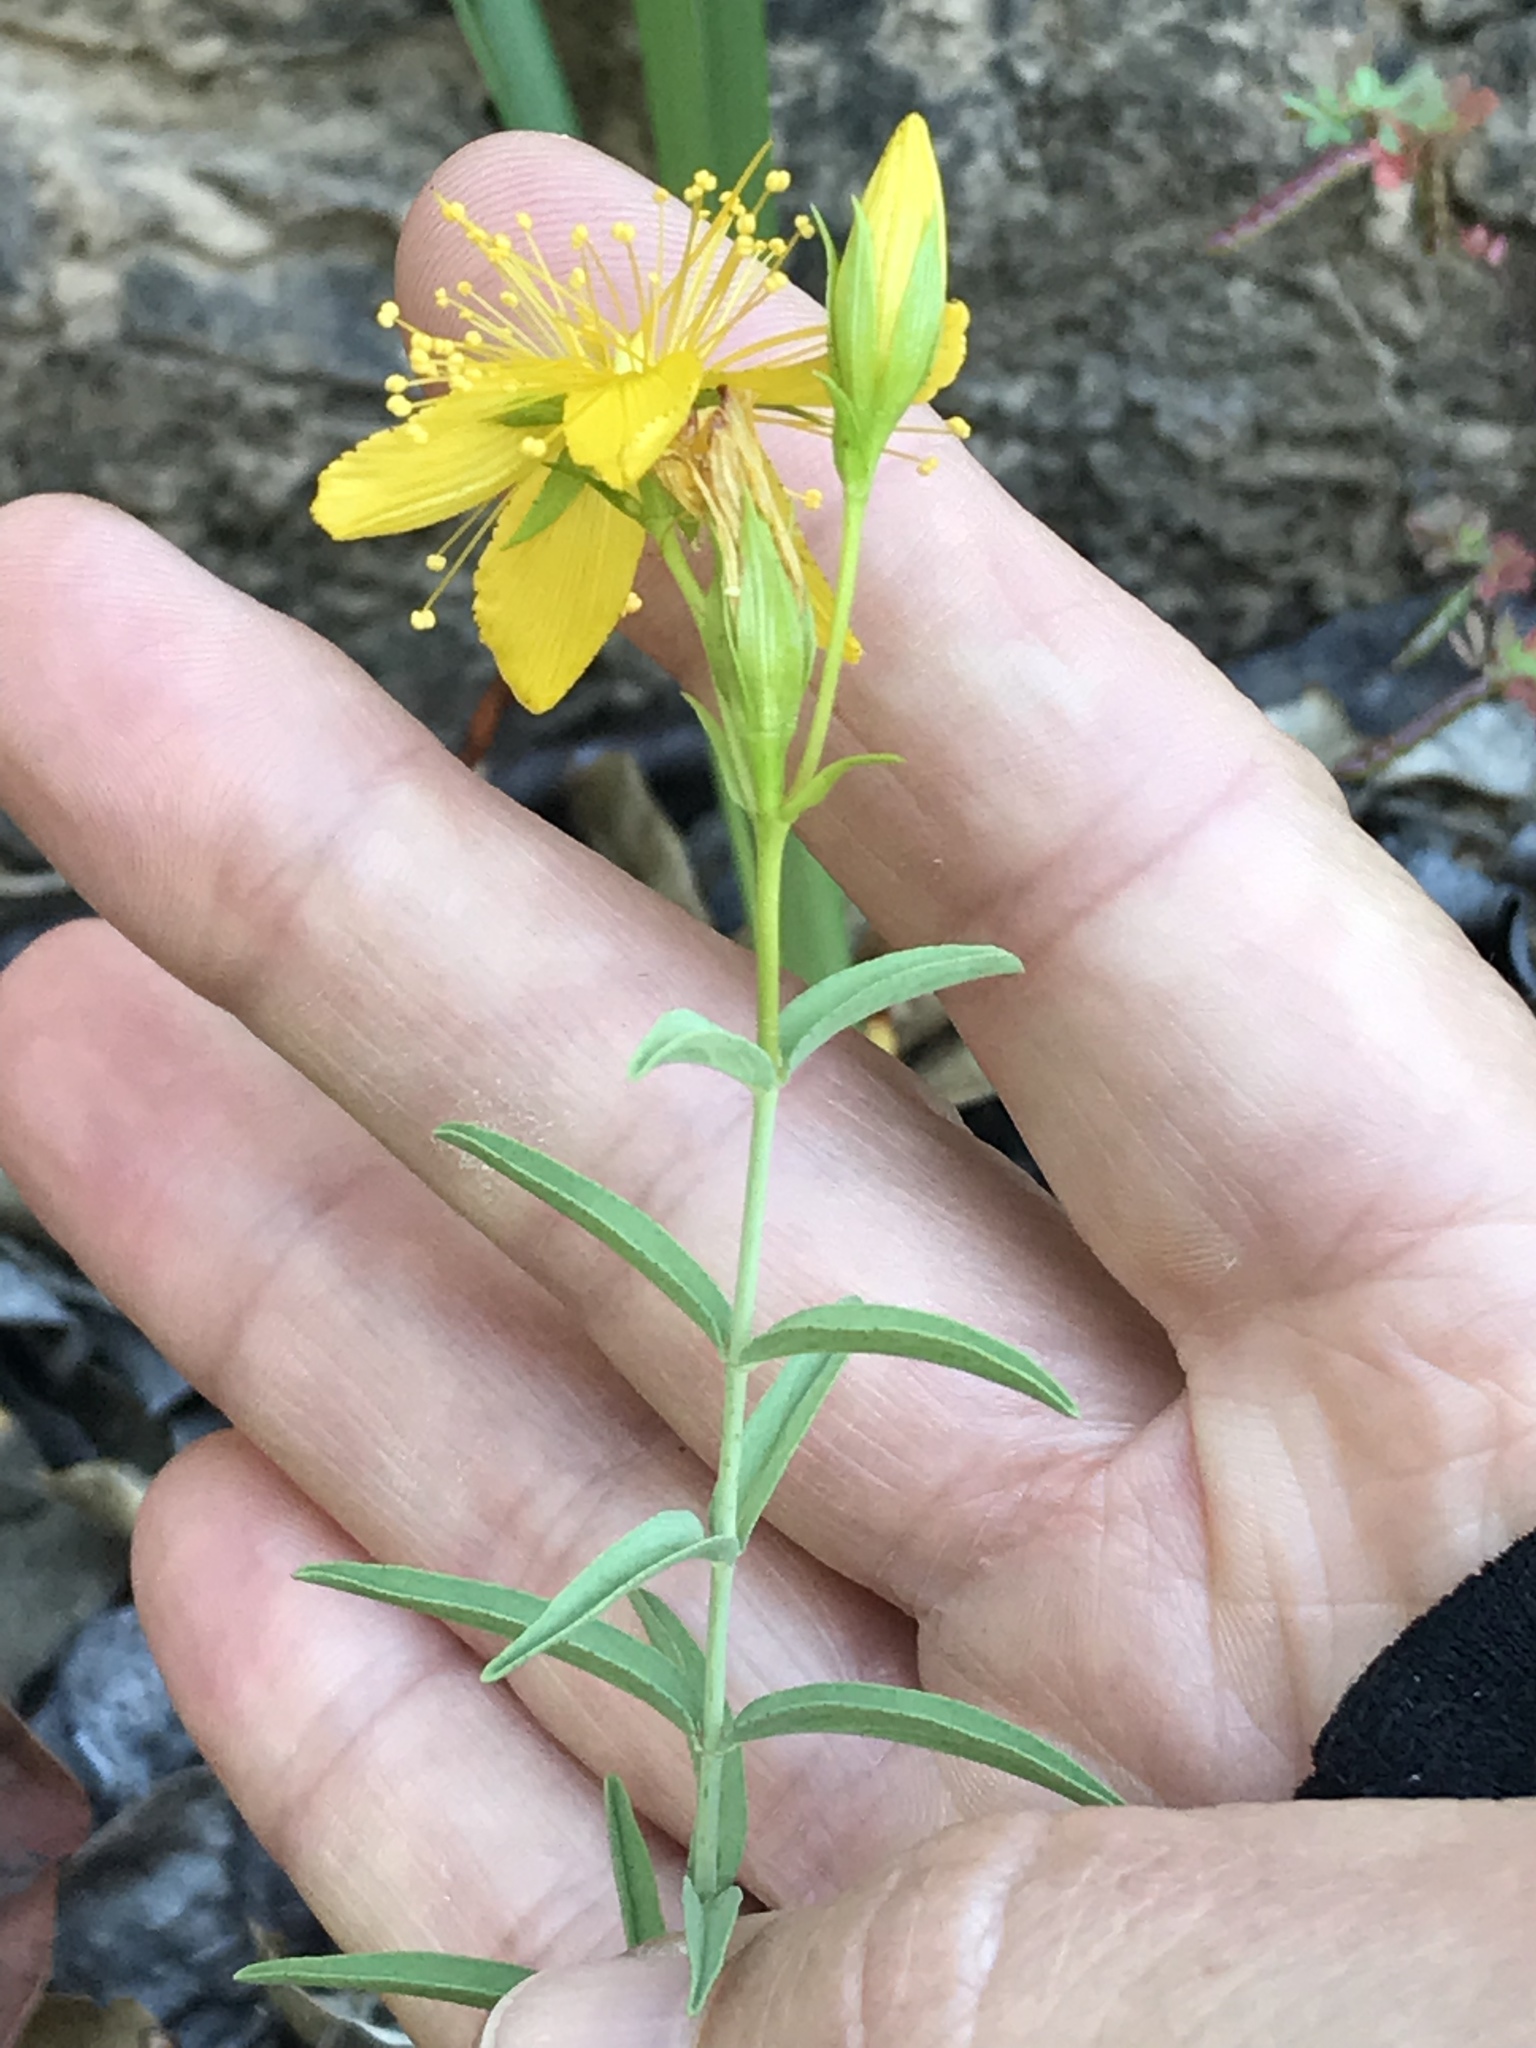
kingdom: Plantae
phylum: Tracheophyta
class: Magnoliopsida
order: Malpighiales
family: Hypericaceae
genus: Hypericum
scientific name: Hypericum concinnum
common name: Gold-wire
